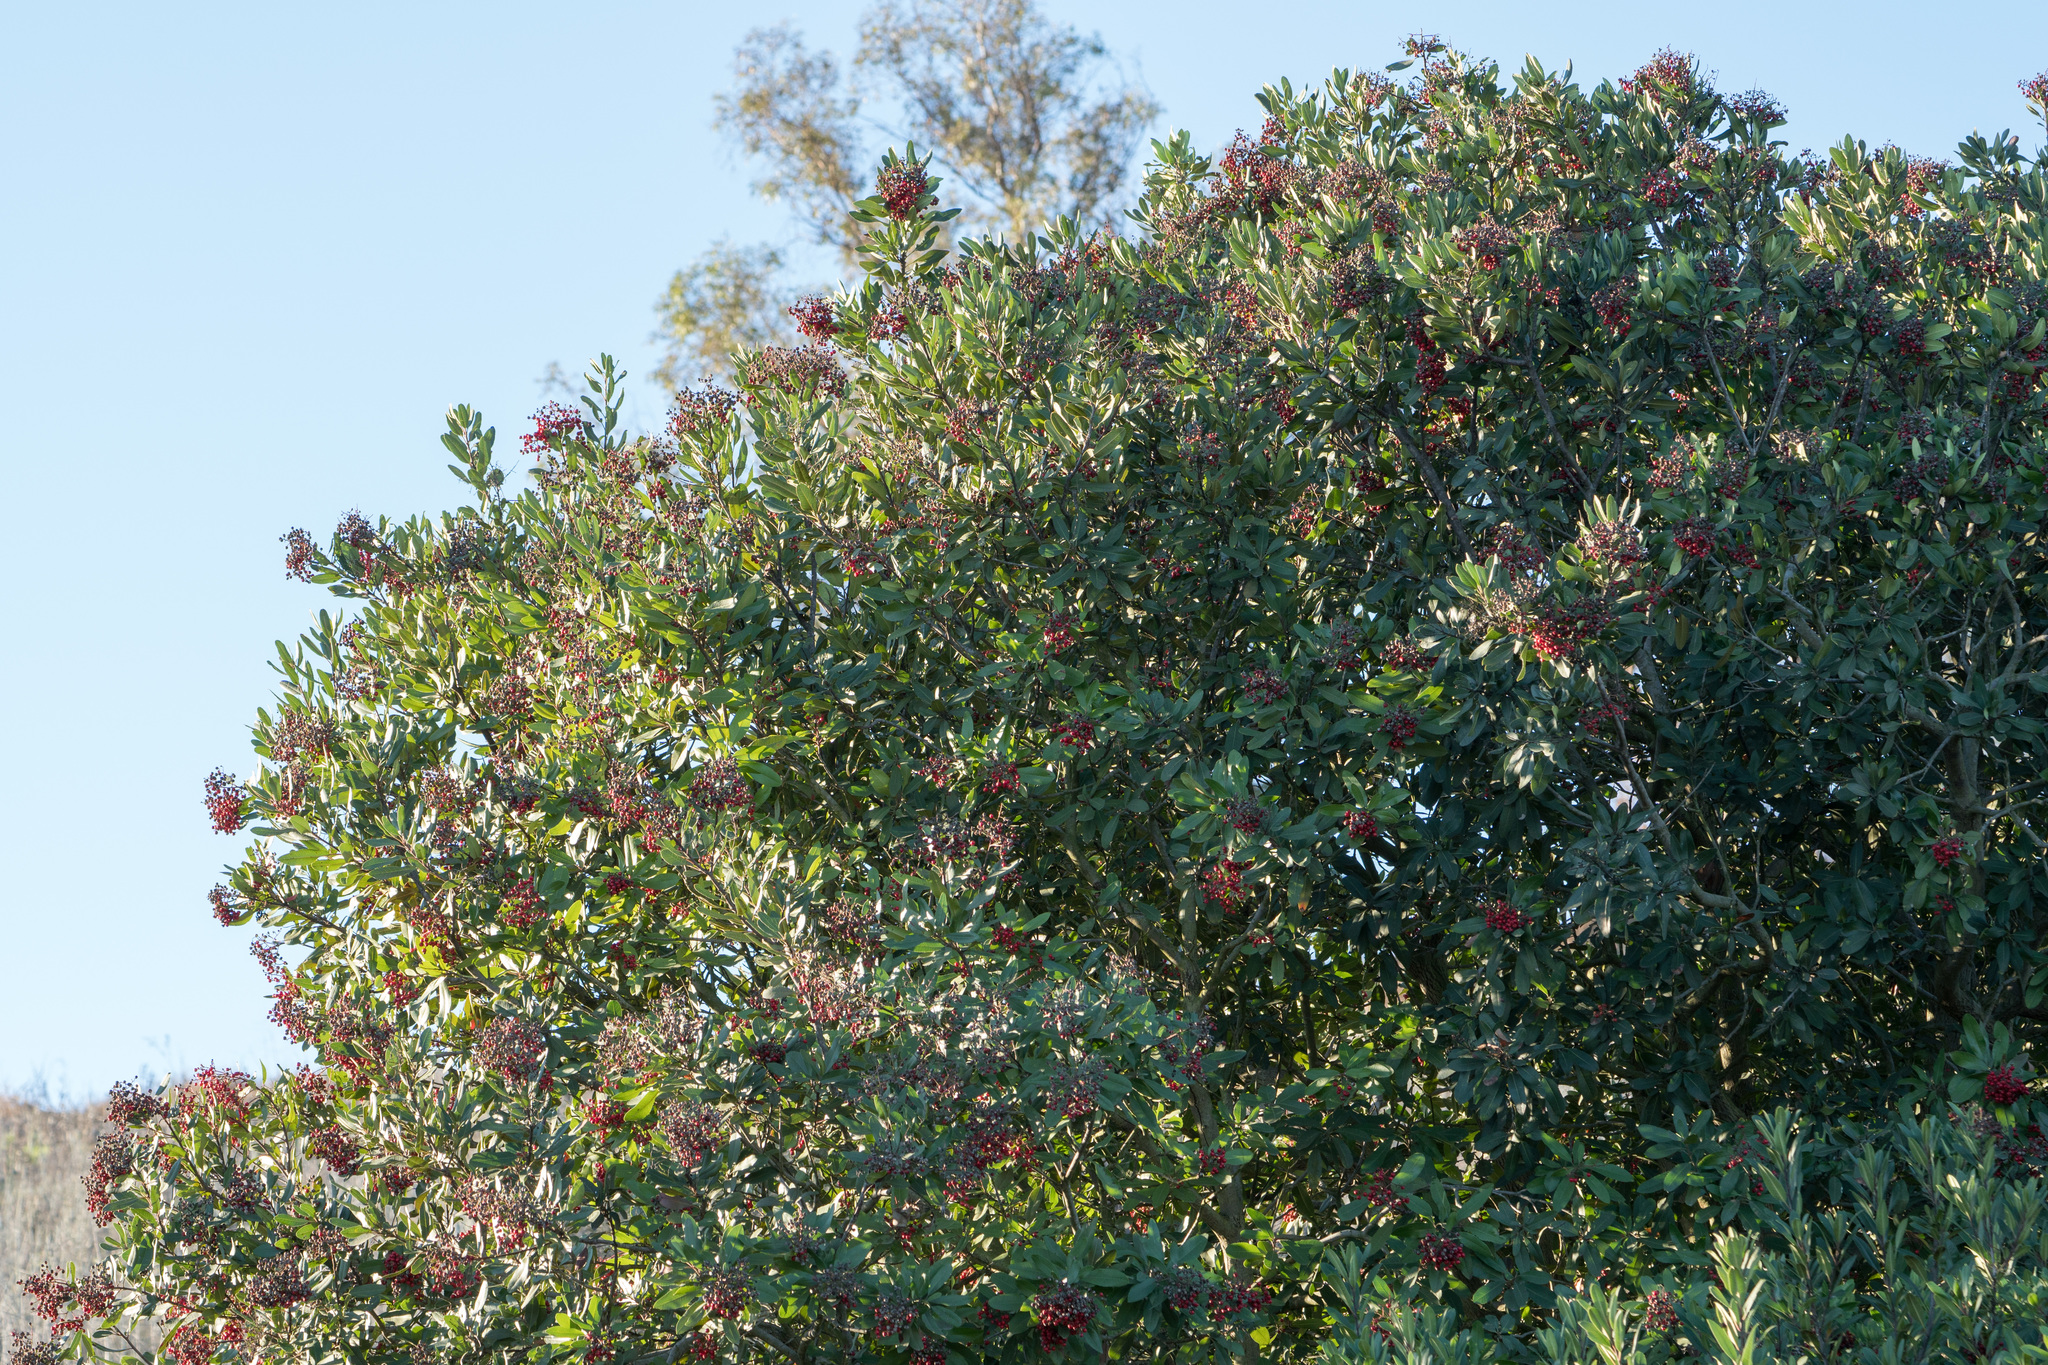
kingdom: Plantae
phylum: Tracheophyta
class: Magnoliopsida
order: Rosales
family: Rosaceae
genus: Heteromeles
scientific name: Heteromeles arbutifolia
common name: California-holly
